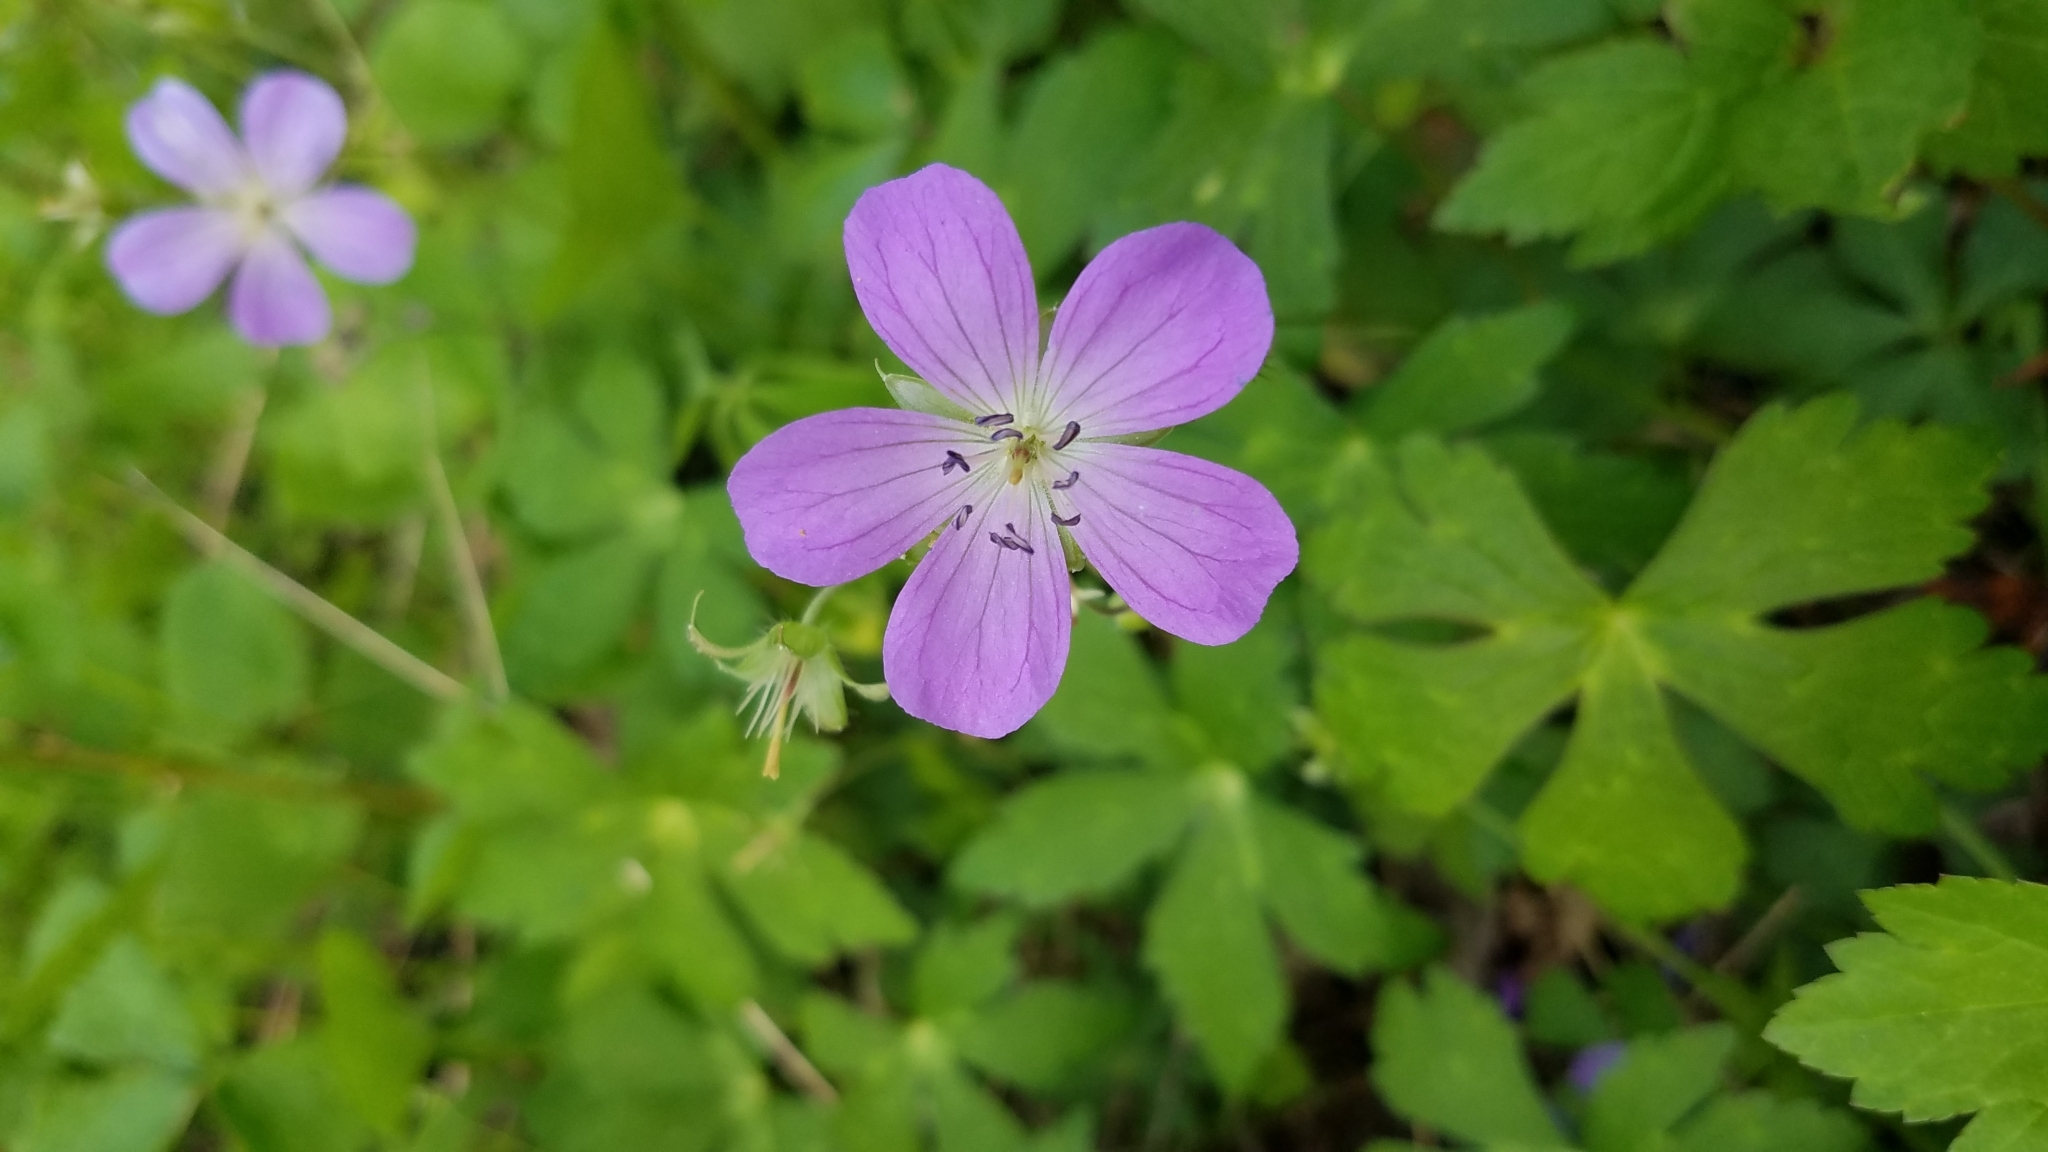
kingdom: Plantae
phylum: Tracheophyta
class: Magnoliopsida
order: Geraniales
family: Geraniaceae
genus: Geranium
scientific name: Geranium maculatum
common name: Spotted geranium
